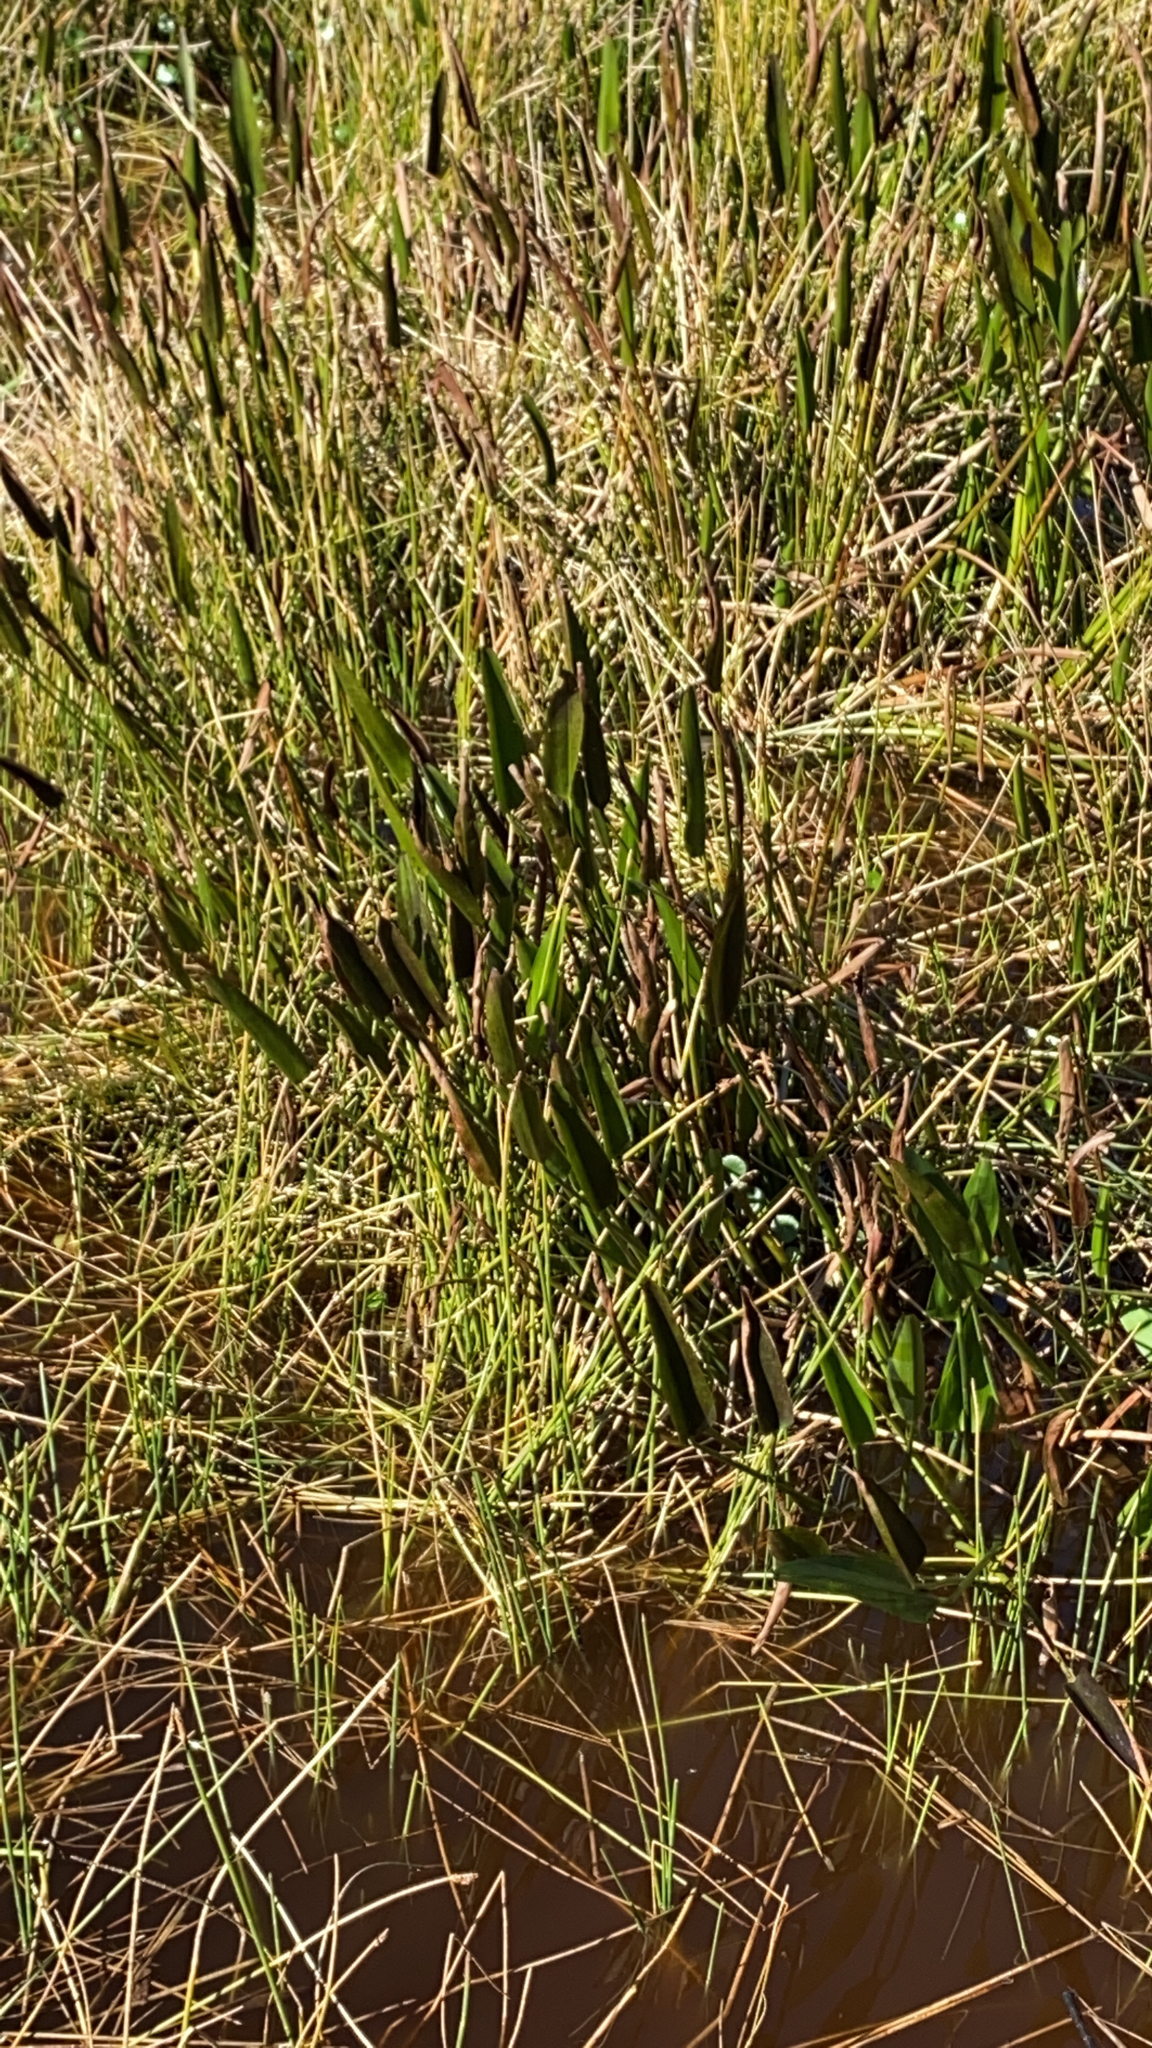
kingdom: Plantae
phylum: Tracheophyta
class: Liliopsida
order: Commelinales
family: Pontederiaceae
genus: Pontederia
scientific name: Pontederia cordata
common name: Pickerelweed
